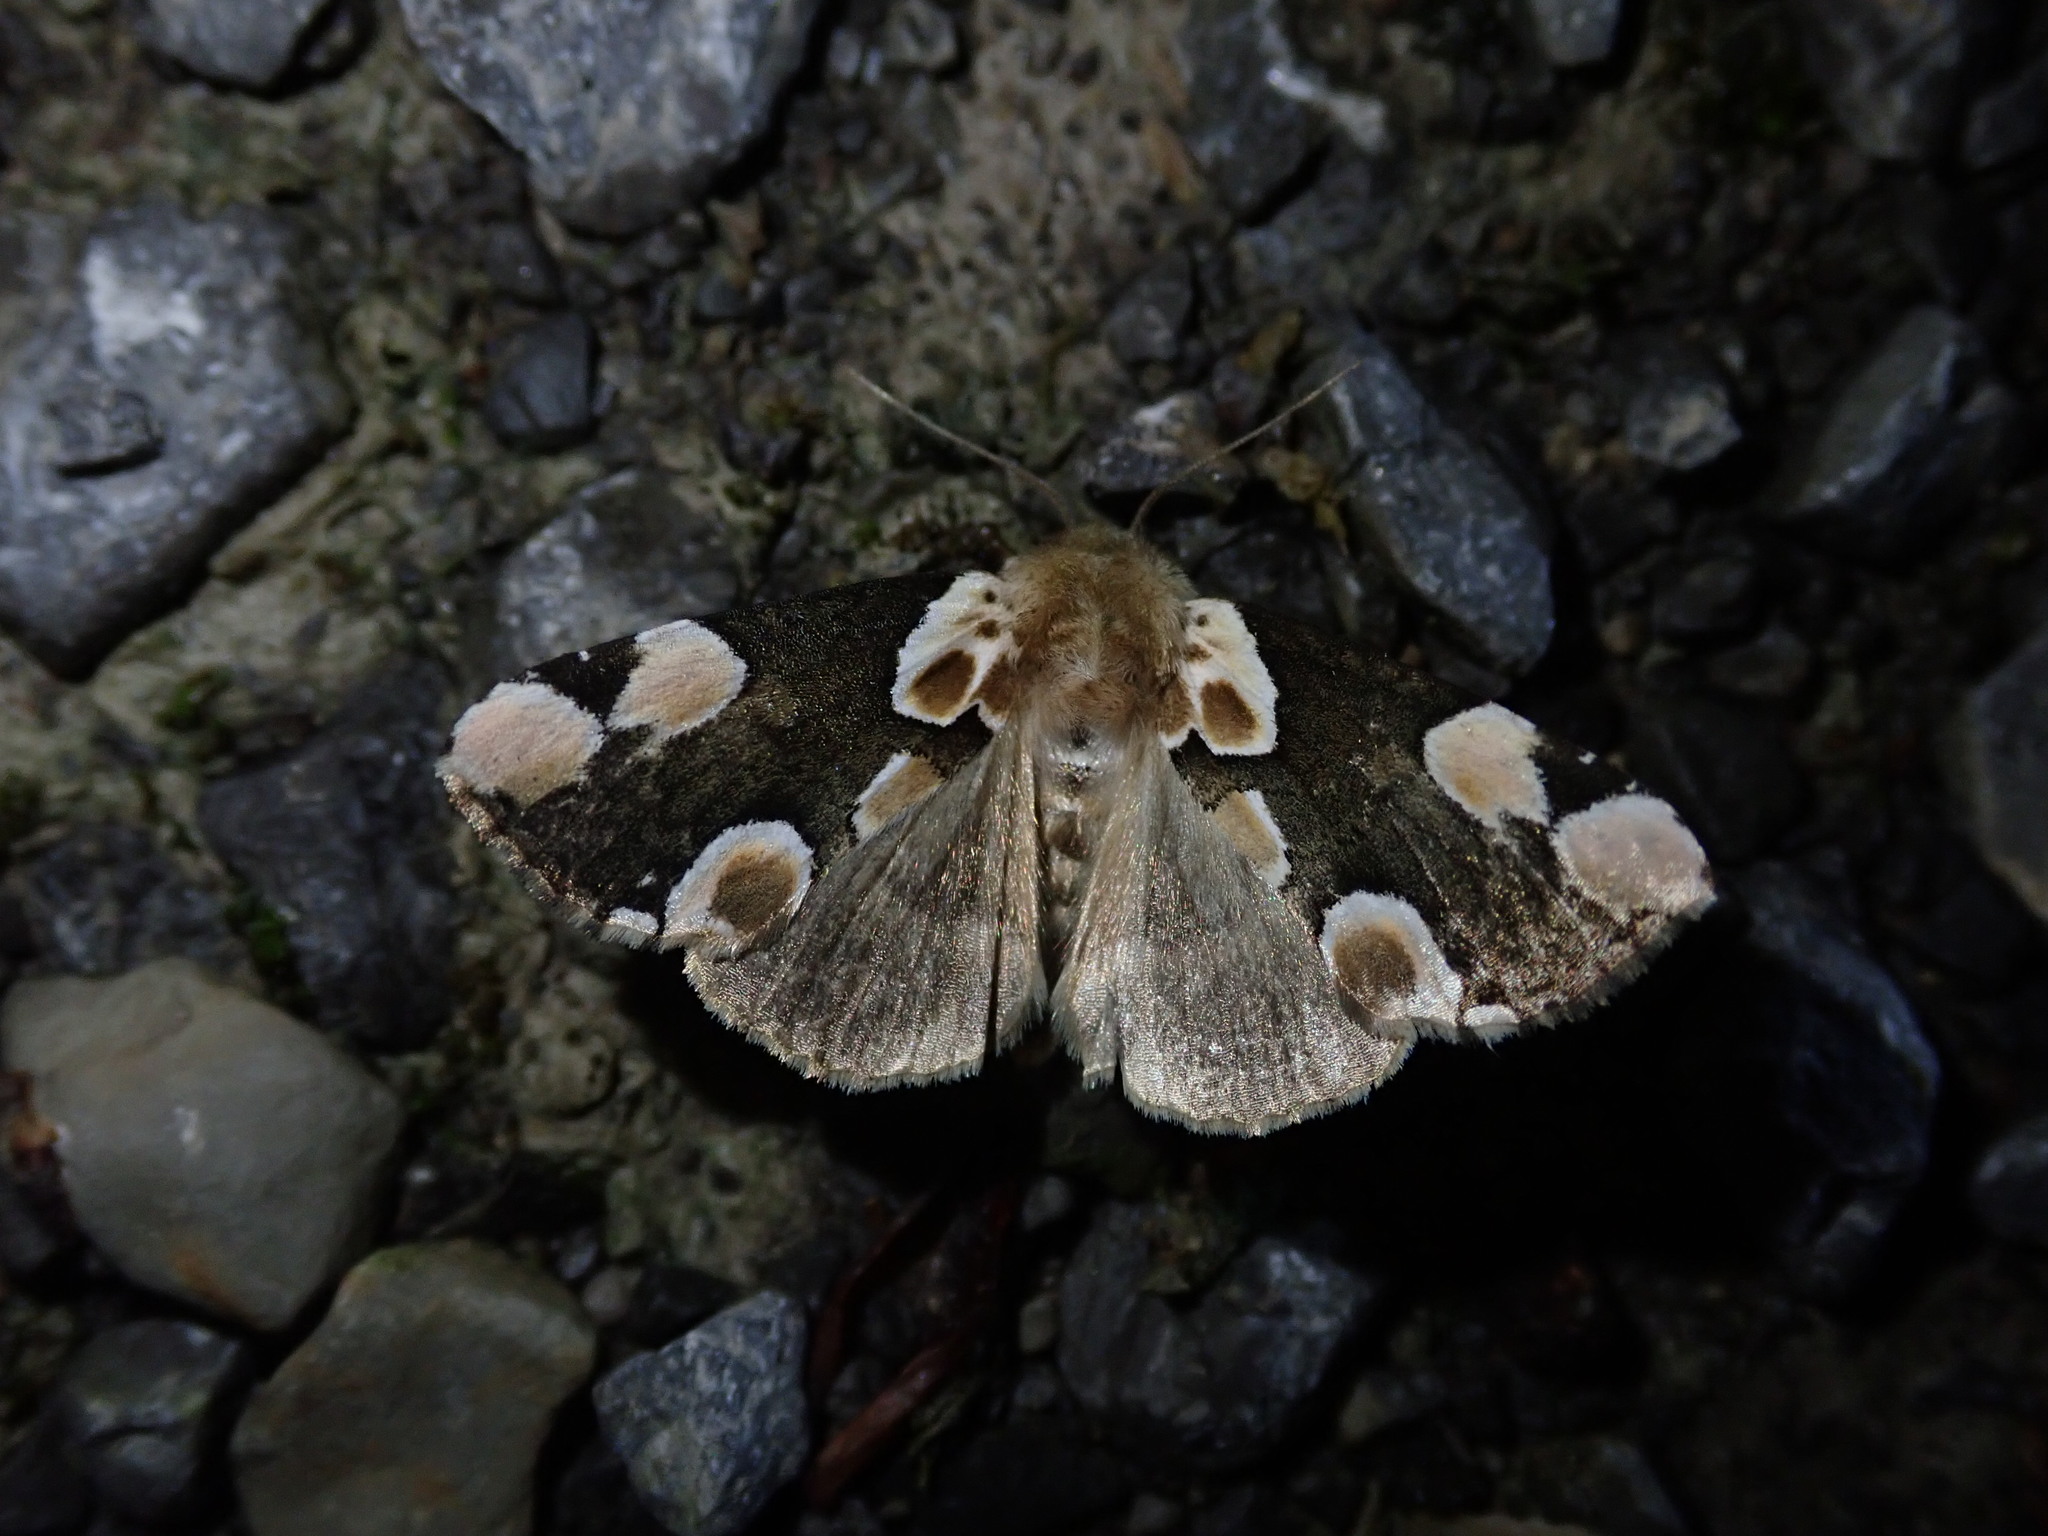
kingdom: Animalia
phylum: Arthropoda
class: Insecta
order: Lepidoptera
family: Drepanidae
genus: Thyatira
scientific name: Thyatira batis
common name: Peach blossom
